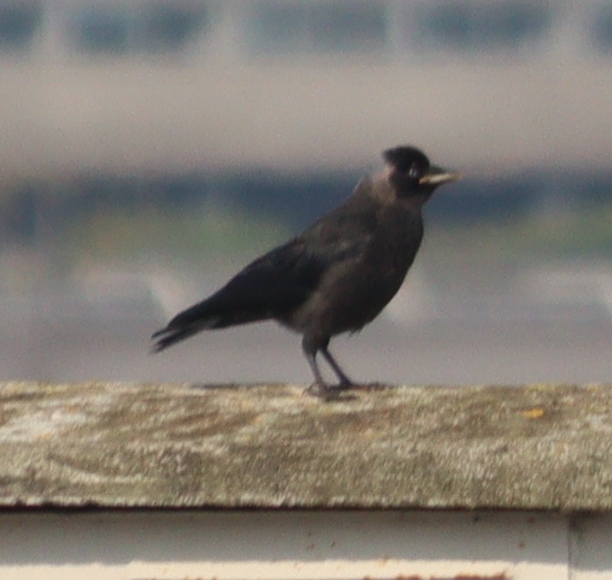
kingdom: Animalia
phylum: Chordata
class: Aves
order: Passeriformes
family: Corvidae
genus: Coloeus
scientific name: Coloeus monedula
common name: Western jackdaw
